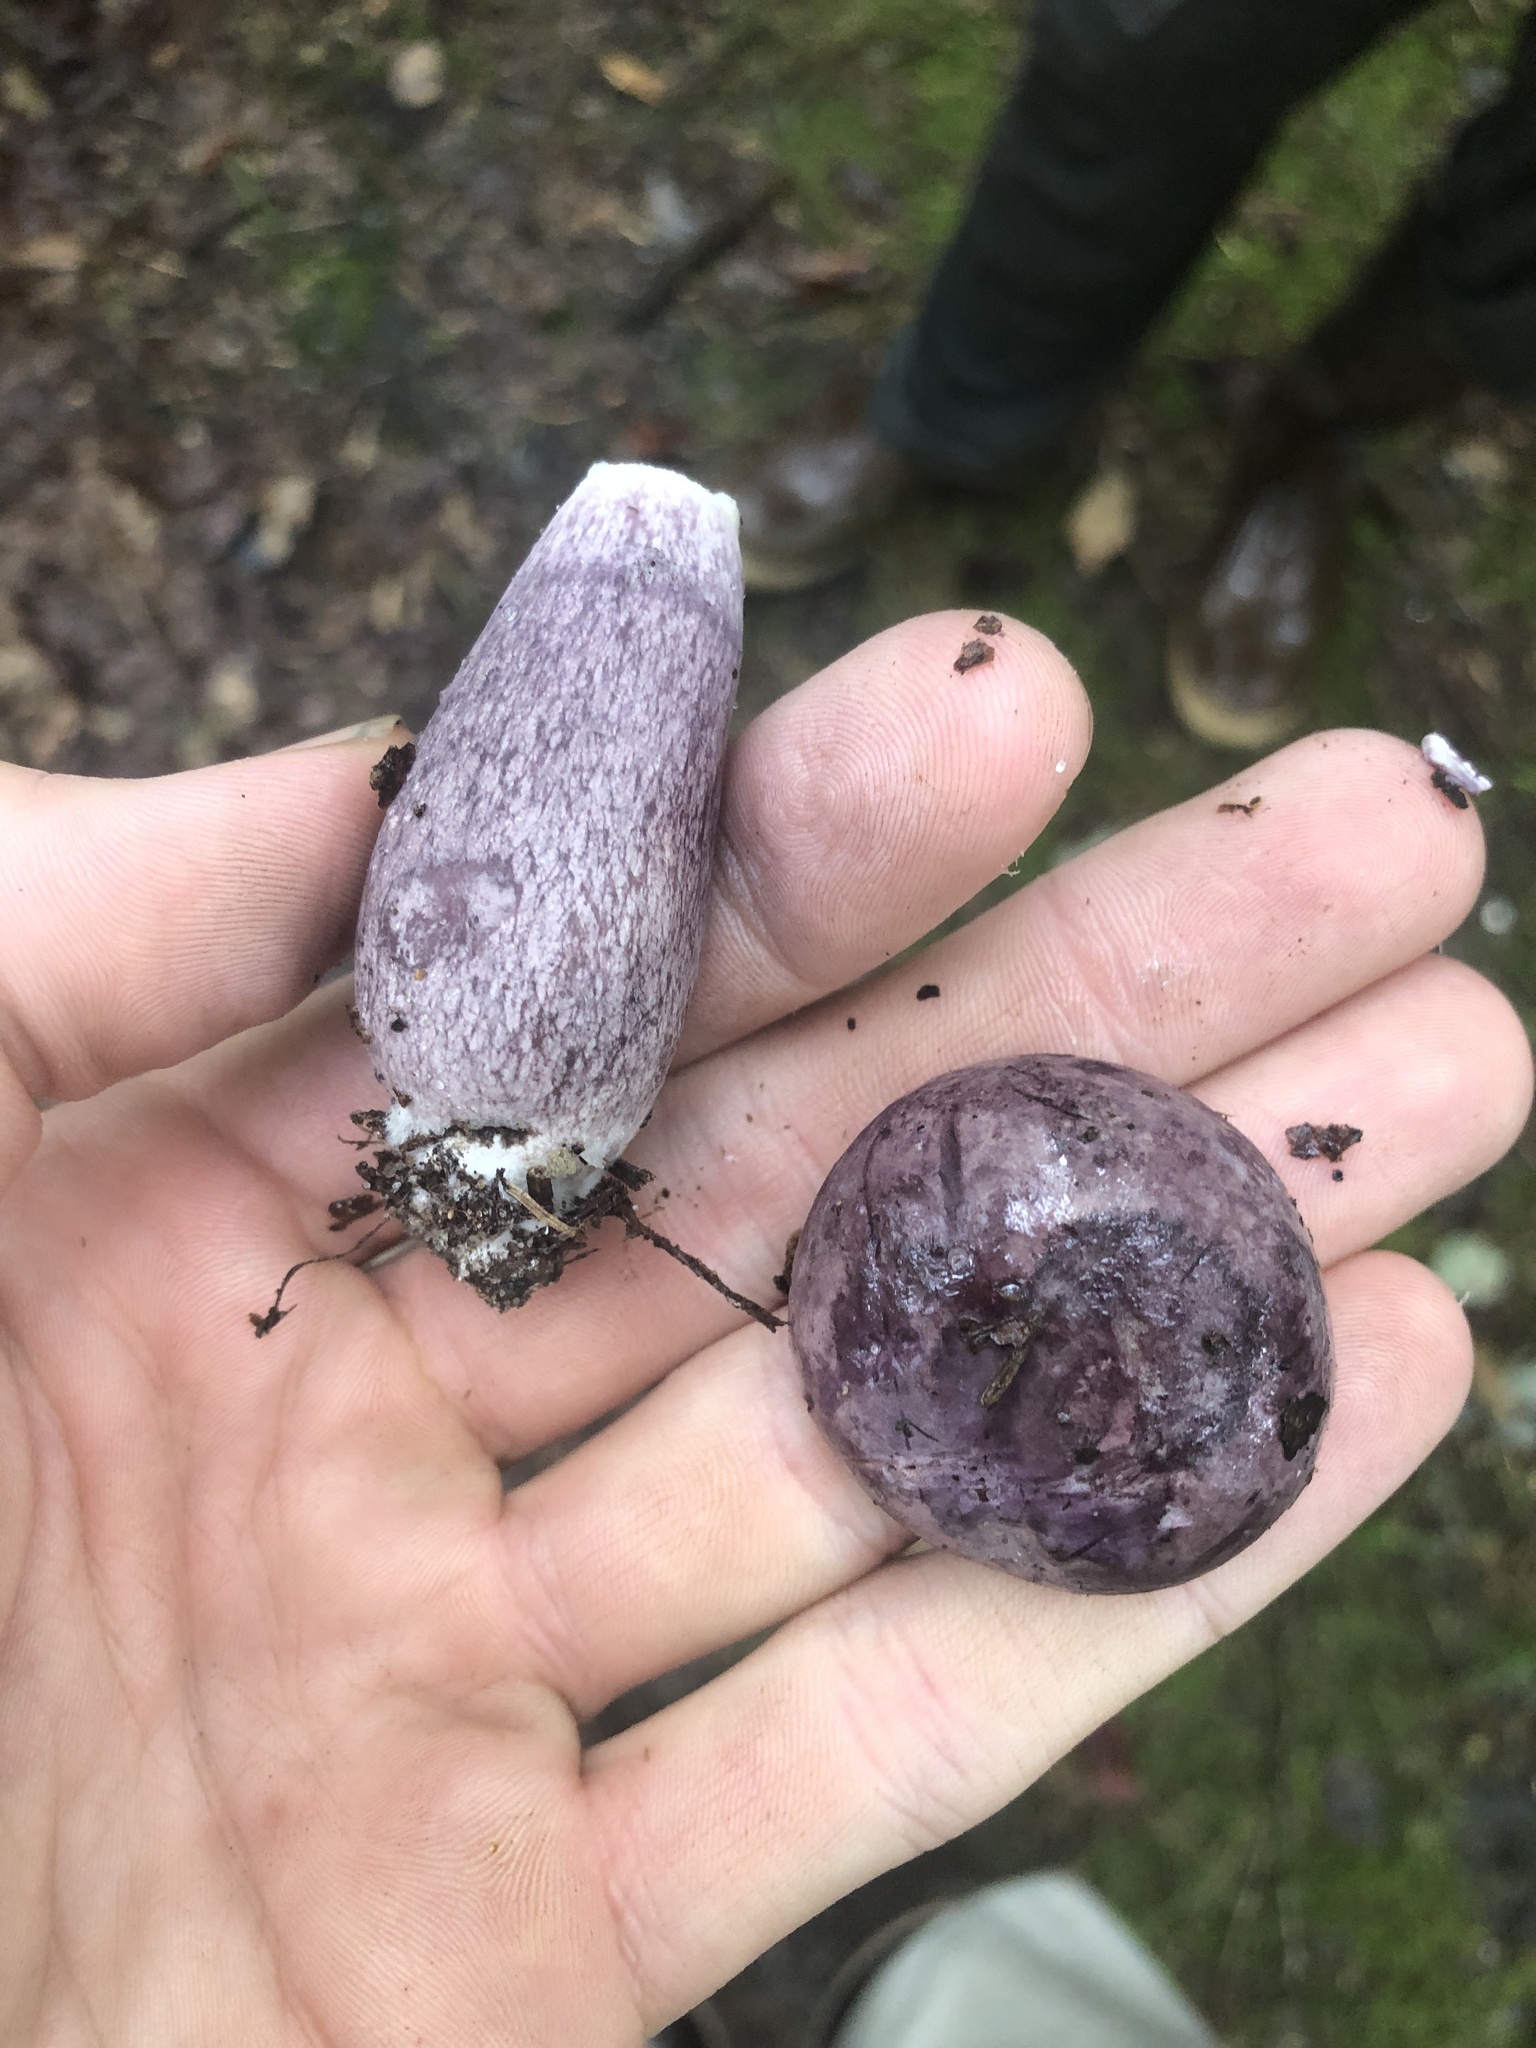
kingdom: Fungi
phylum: Basidiomycota
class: Agaricomycetes
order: Boletales
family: Boletaceae
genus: Tylopilus
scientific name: Tylopilus plumbeoviolaceus
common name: Violet gray bolete
